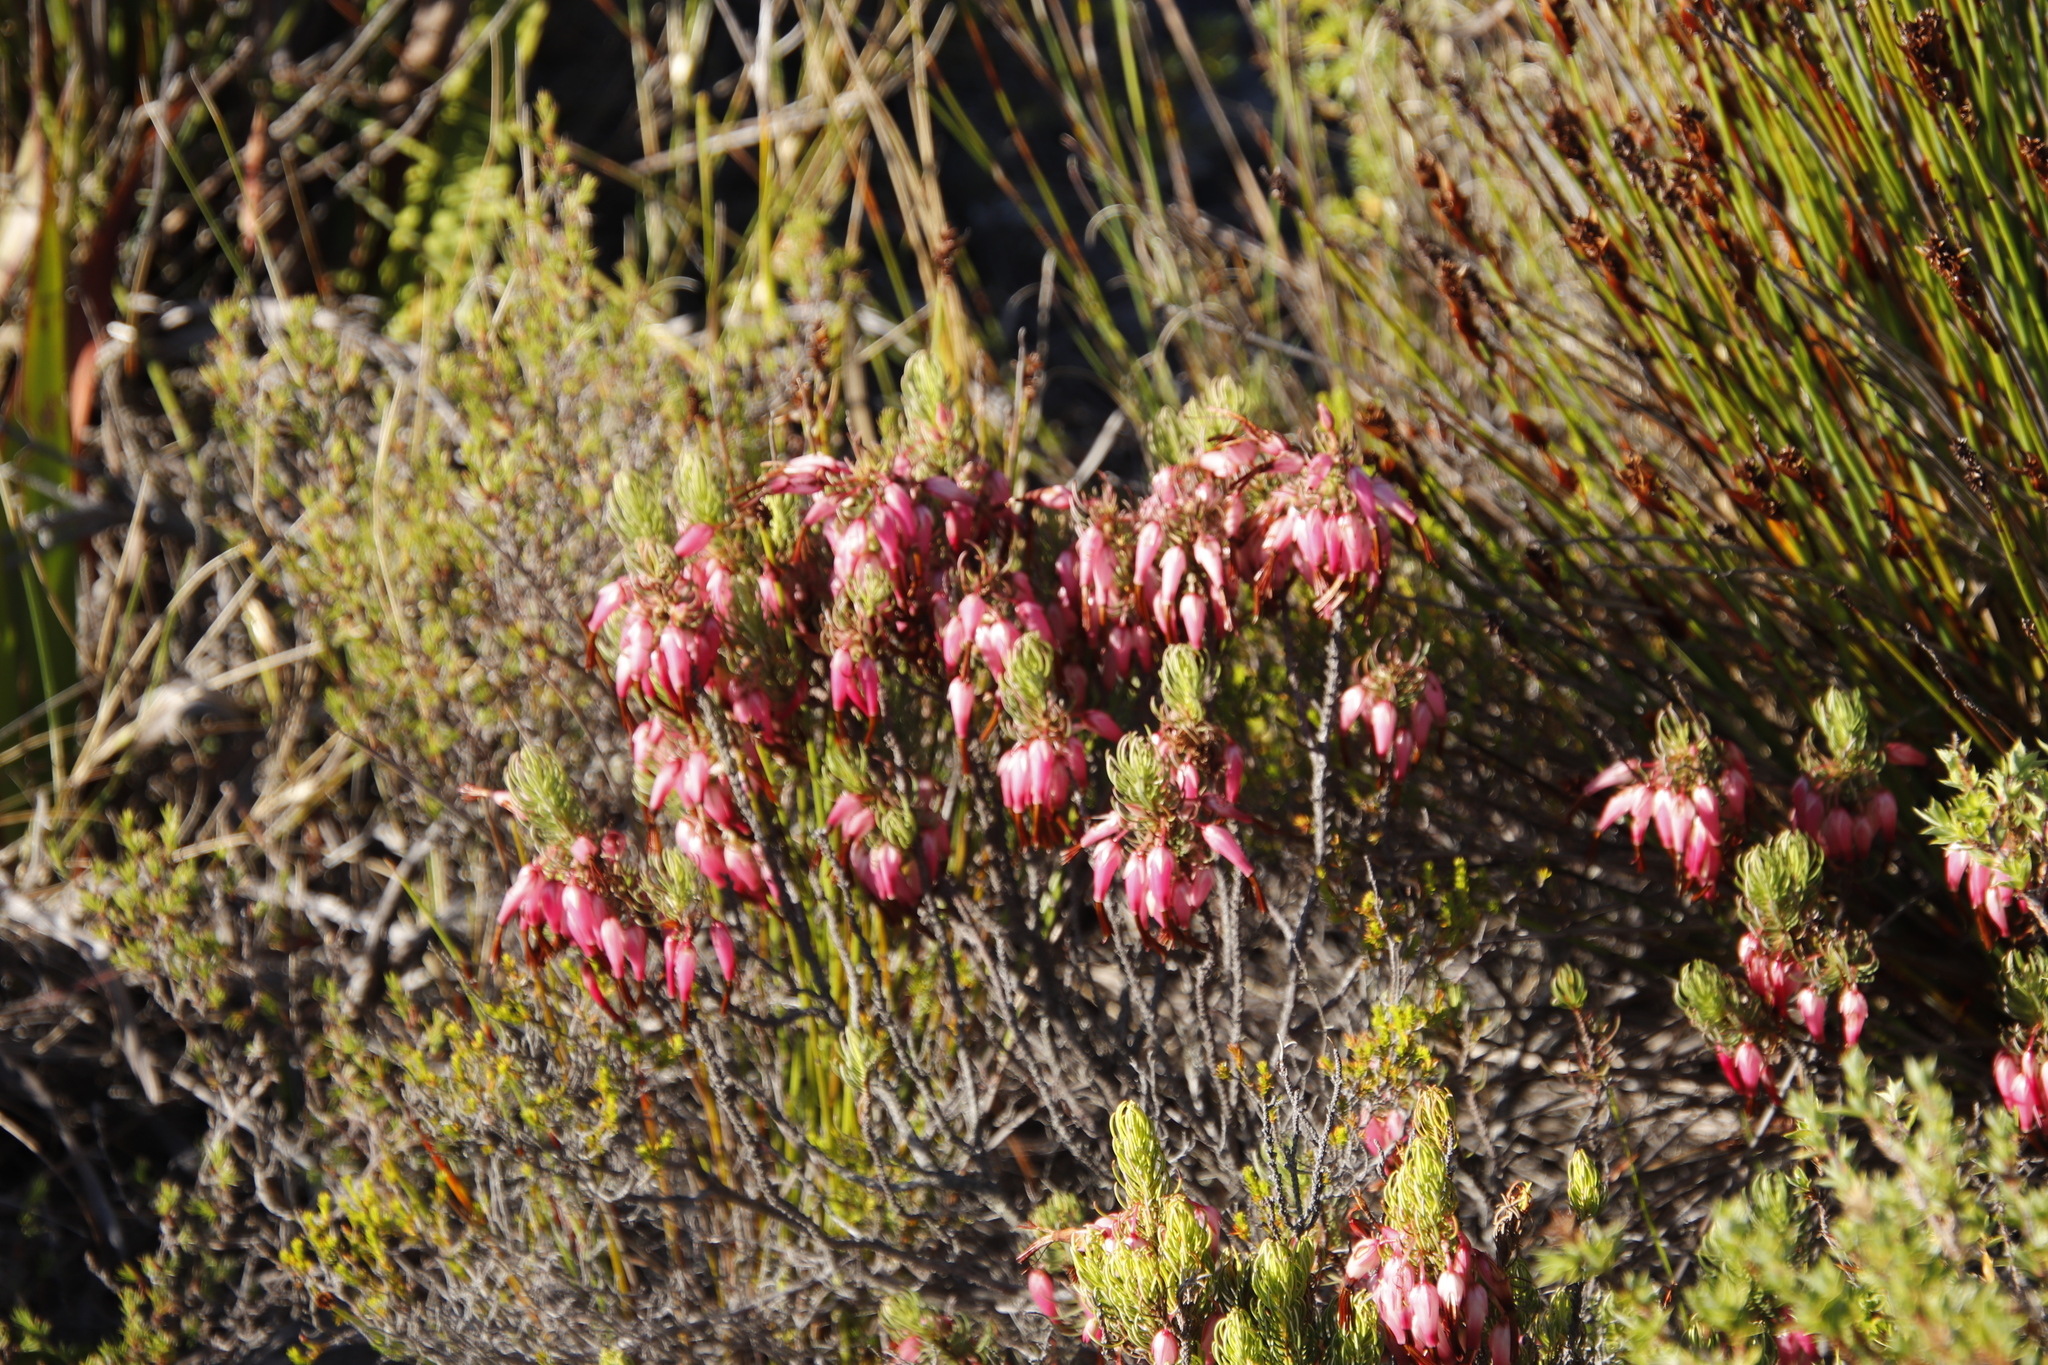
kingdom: Plantae
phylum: Tracheophyta
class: Magnoliopsida
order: Ericales
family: Ericaceae
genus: Erica
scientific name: Erica plukenetii
